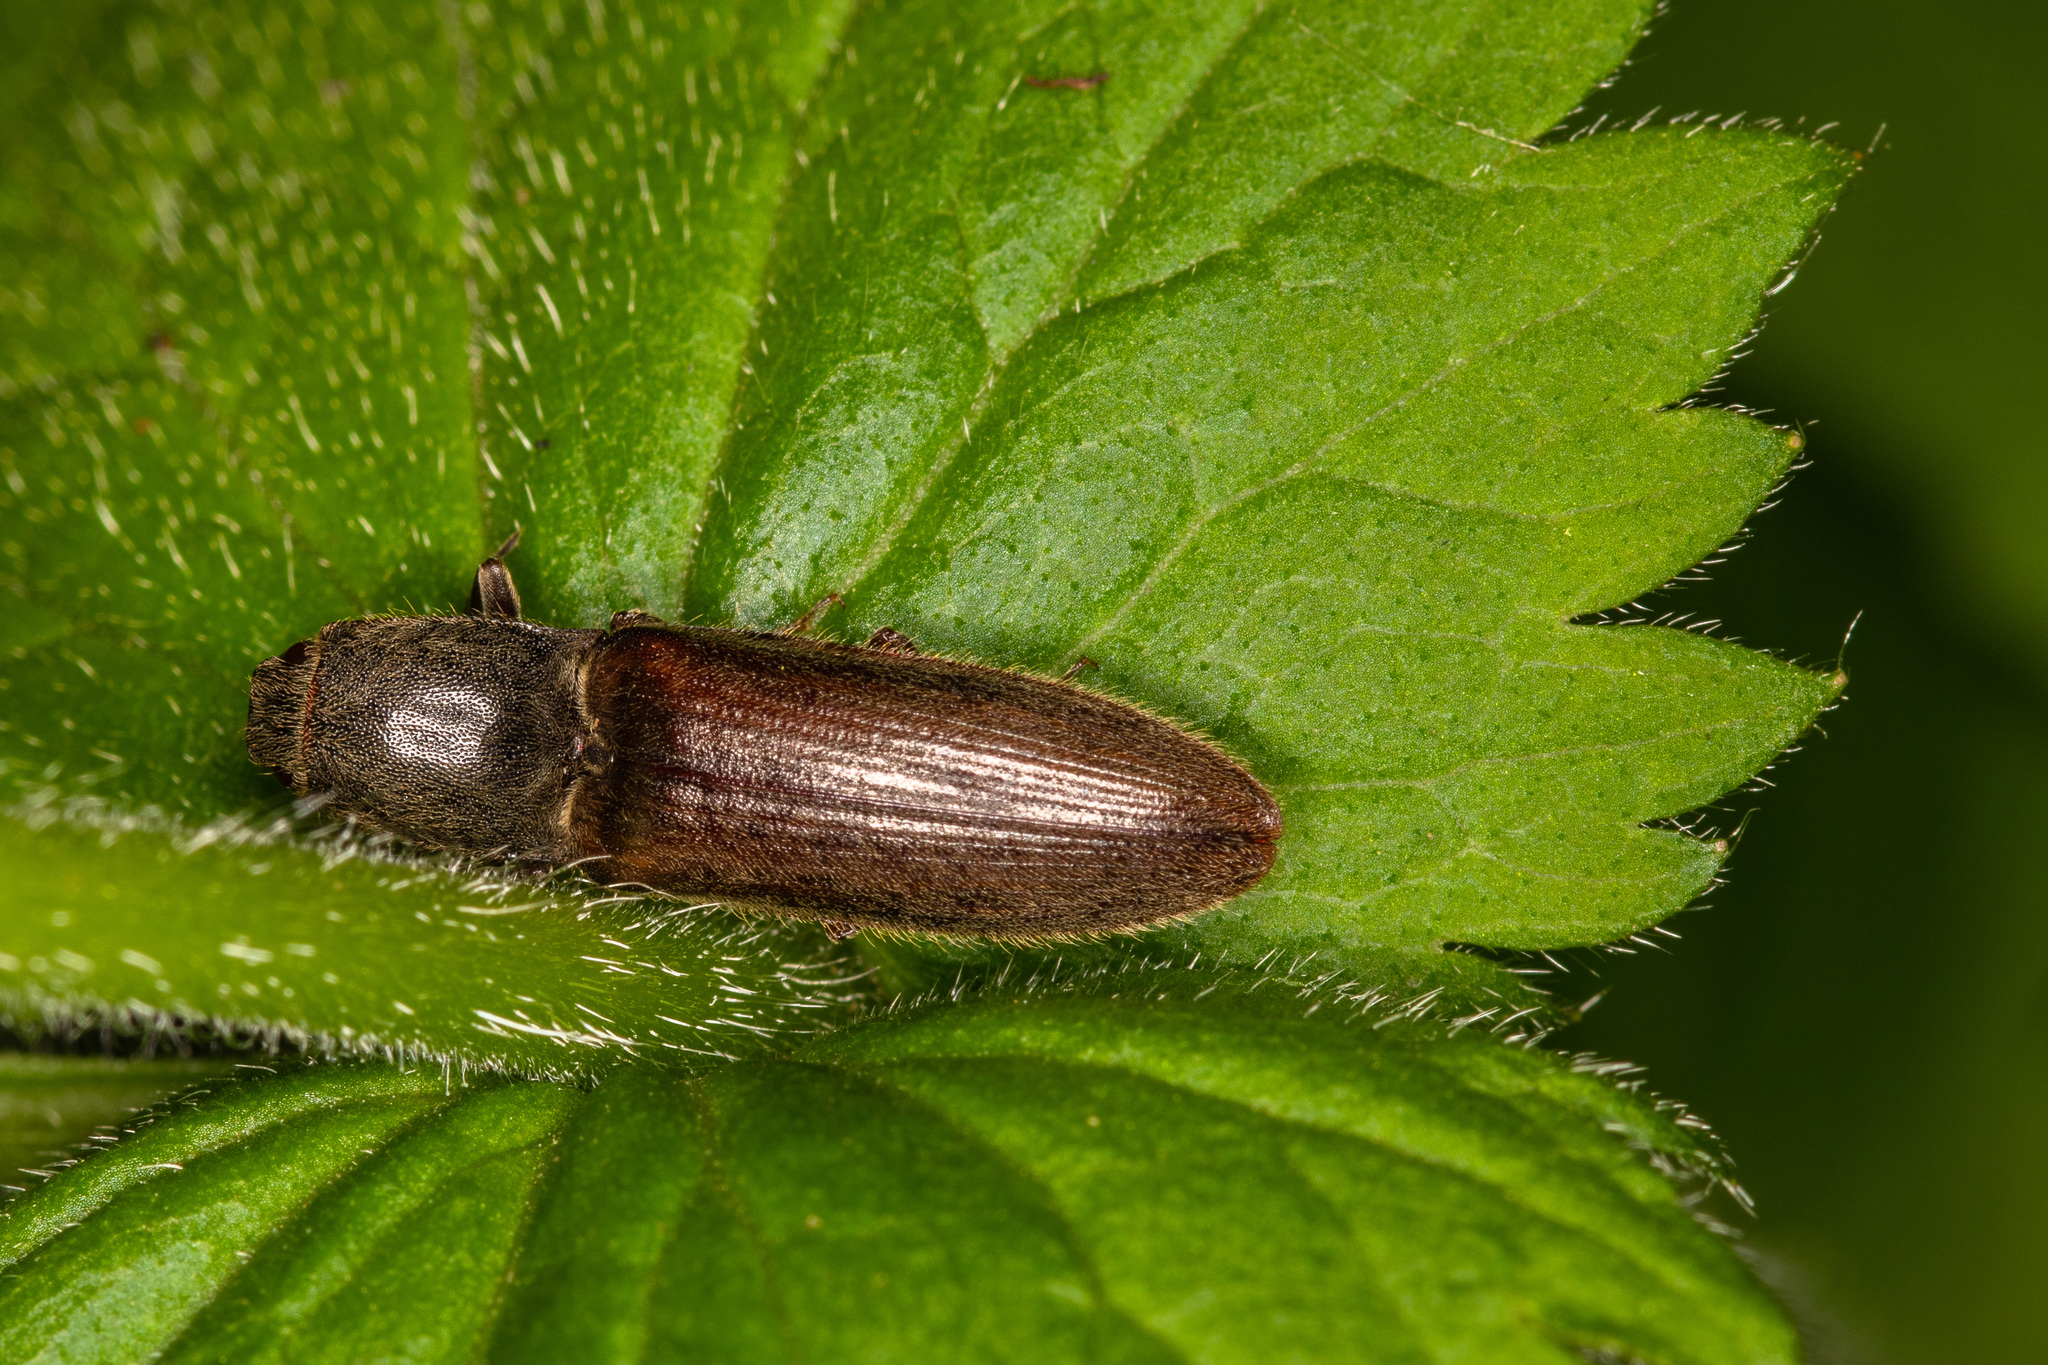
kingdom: Animalia
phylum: Arthropoda
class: Insecta
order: Coleoptera
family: Elateridae
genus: Athous
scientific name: Athous haemorrhoidalis
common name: Red-brown click beetle
